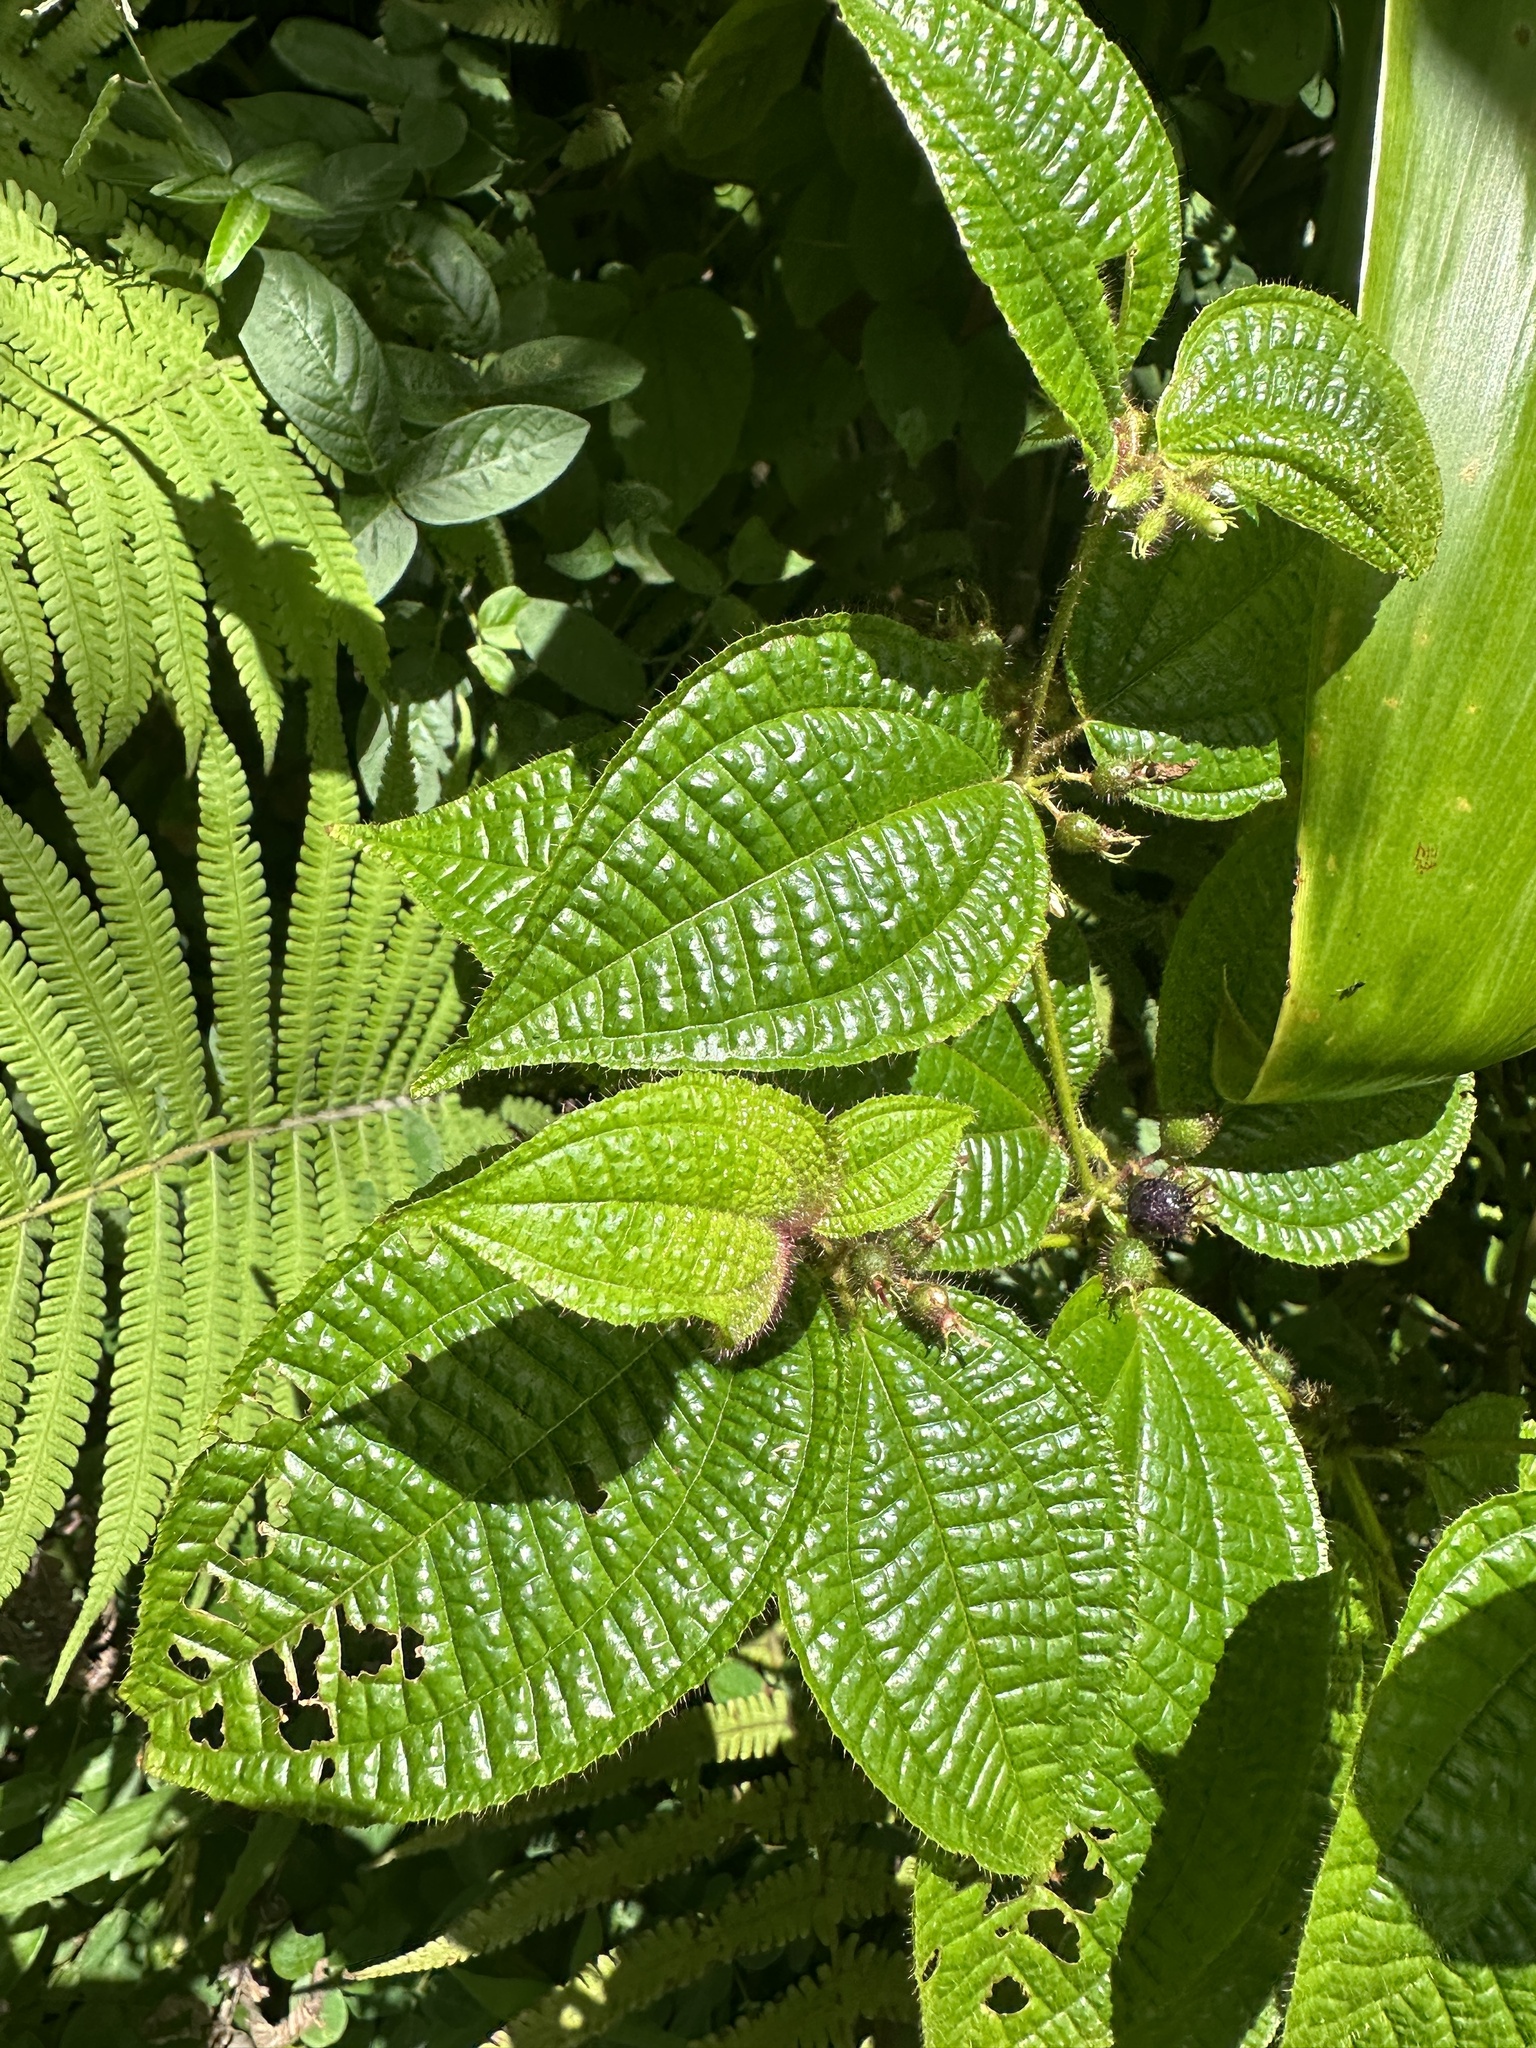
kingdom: Plantae
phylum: Tracheophyta
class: Magnoliopsida
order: Myrtales
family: Melastomataceae
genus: Miconia
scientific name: Miconia crenata
